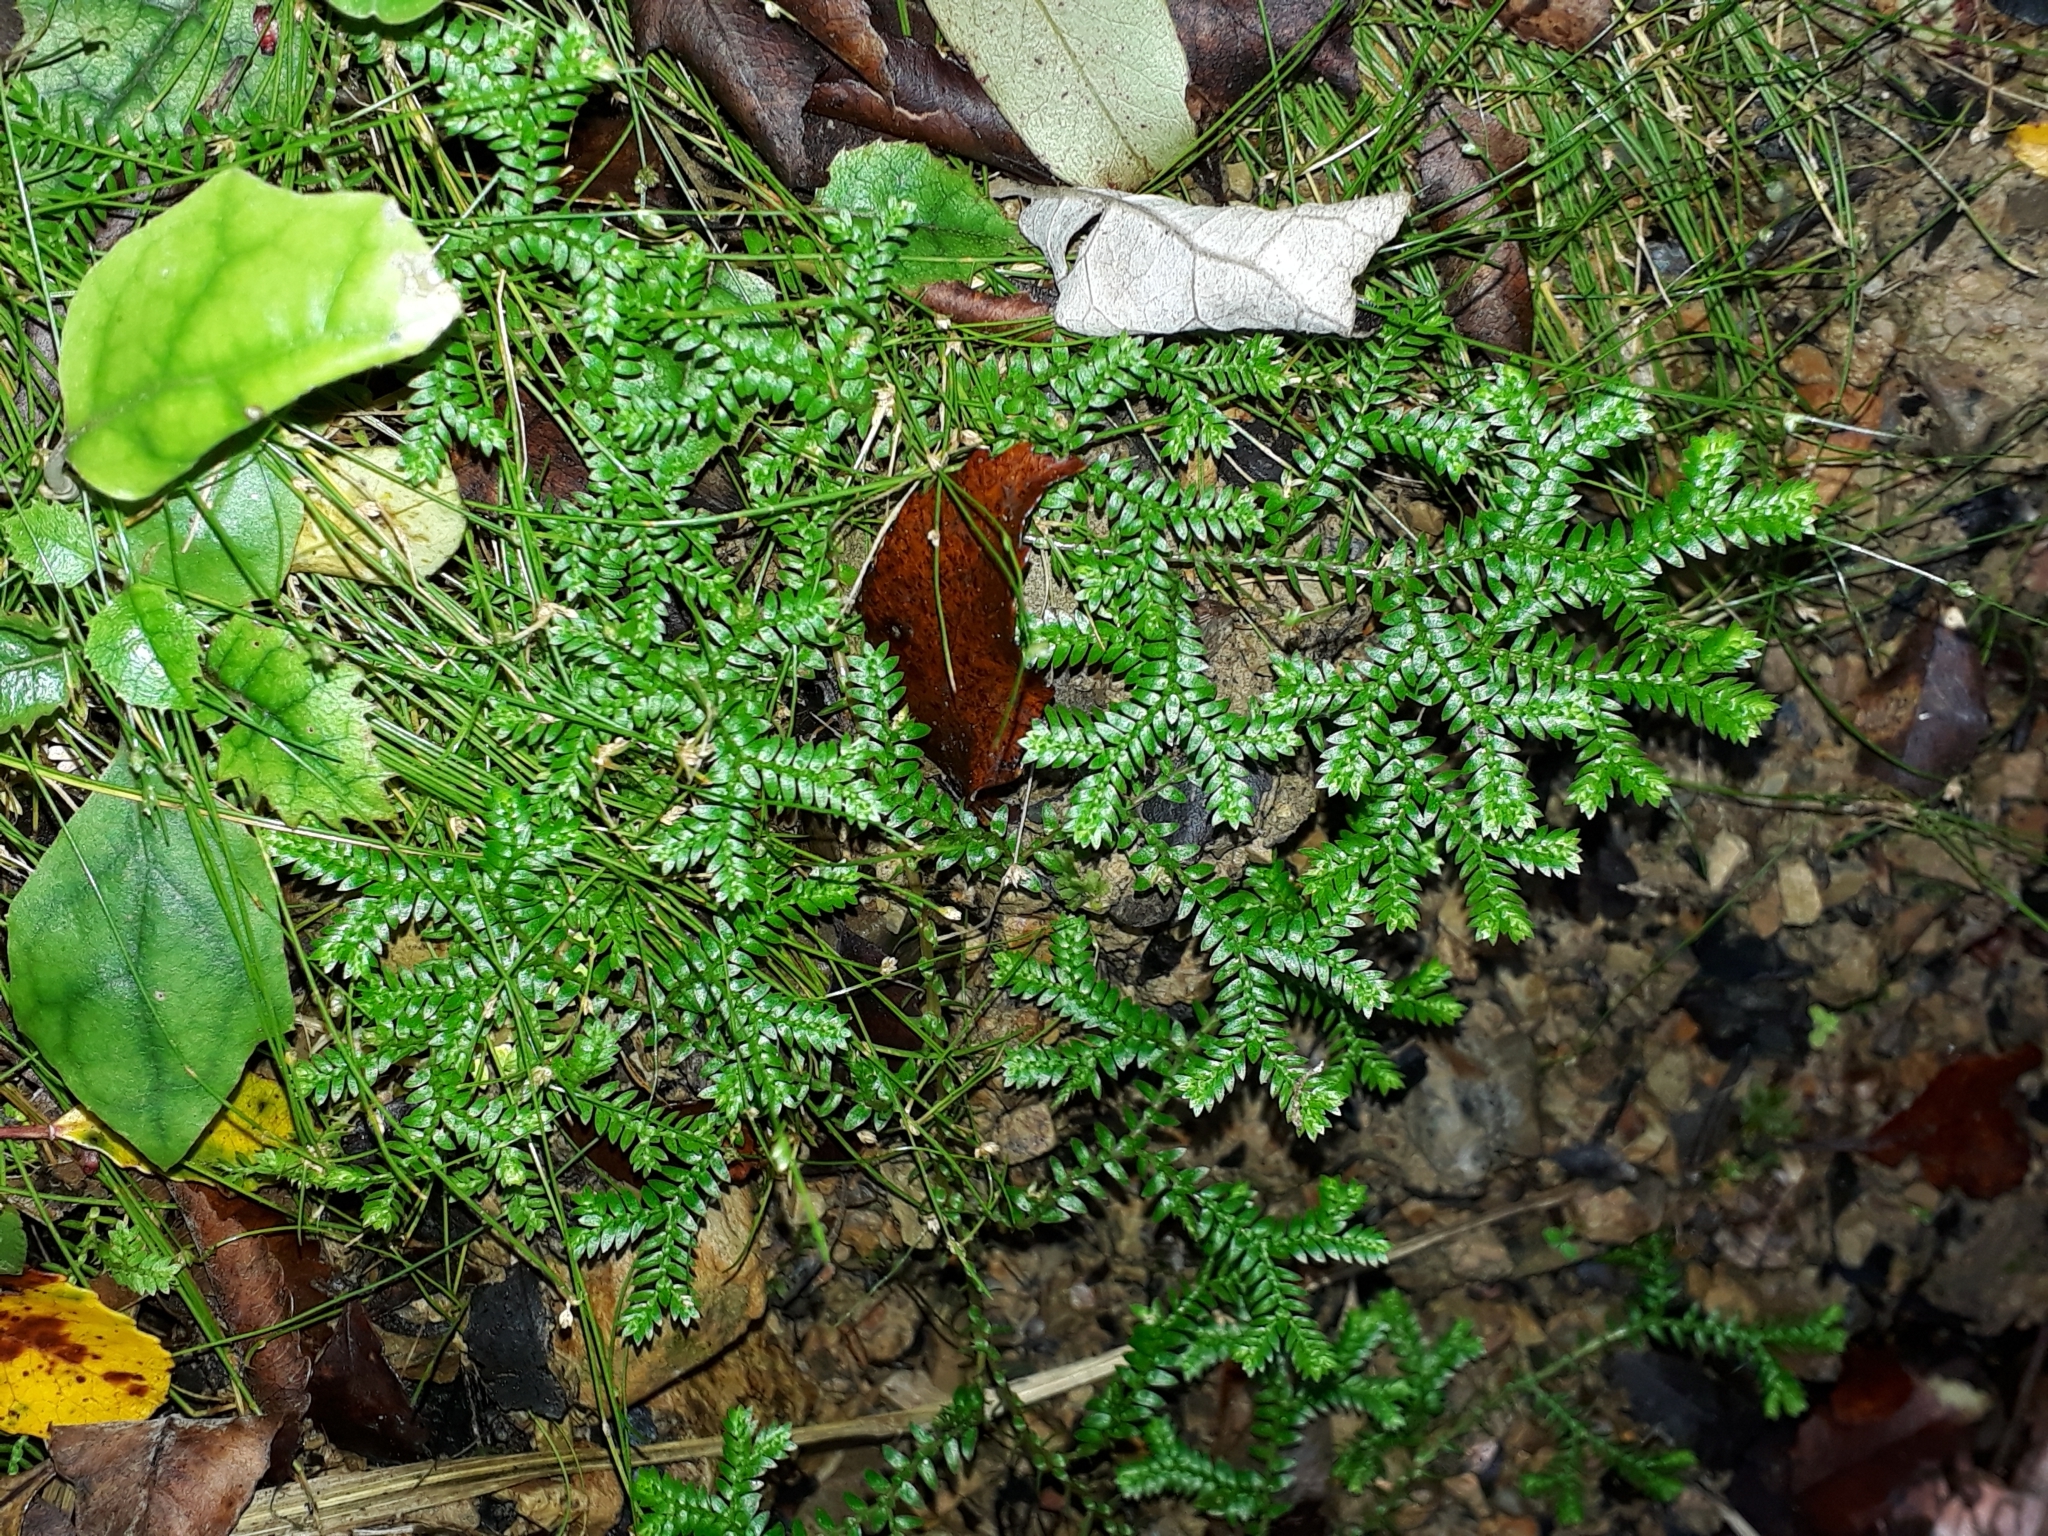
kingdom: Plantae
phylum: Tracheophyta
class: Lycopodiopsida
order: Selaginellales
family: Selaginellaceae
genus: Selaginella
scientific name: Selaginella kraussiana
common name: Krauss' spikemoss
